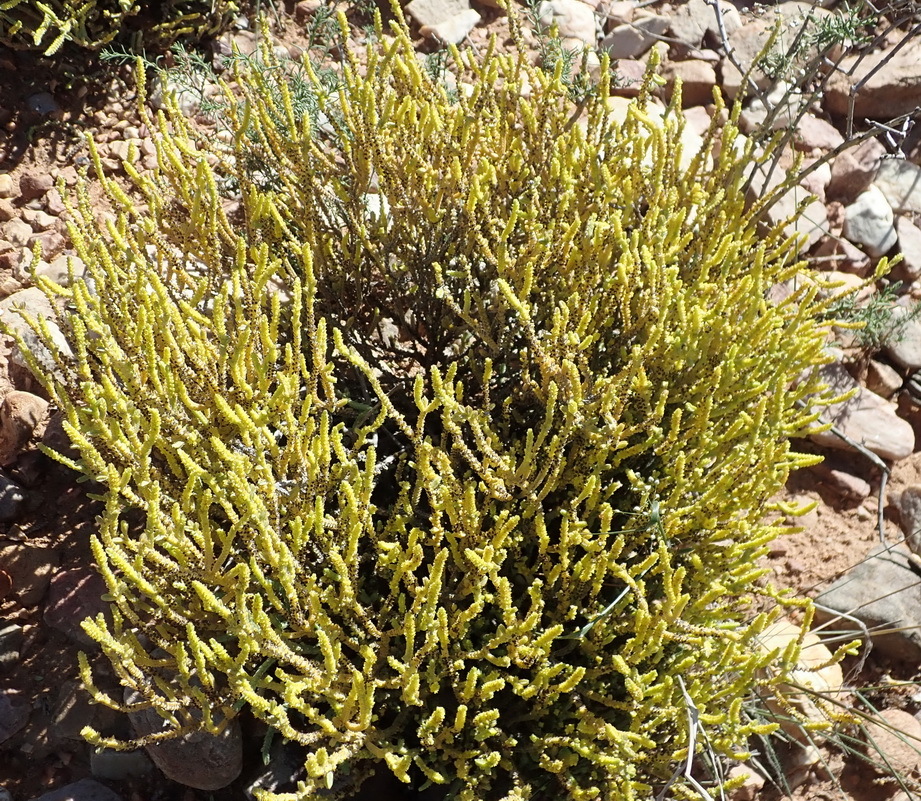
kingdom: Plantae
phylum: Tracheophyta
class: Magnoliopsida
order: Saxifragales
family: Crassulaceae
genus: Crassula
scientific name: Crassula muscosa
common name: Toy-cypress
